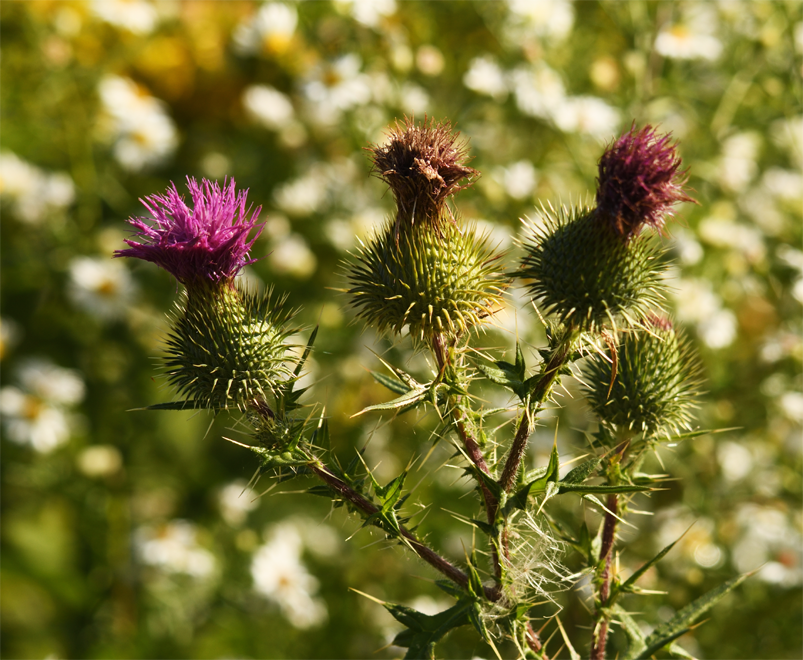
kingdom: Plantae
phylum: Tracheophyta
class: Magnoliopsida
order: Asterales
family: Asteraceae
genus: Cirsium
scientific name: Cirsium vulgare
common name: Bull thistle
